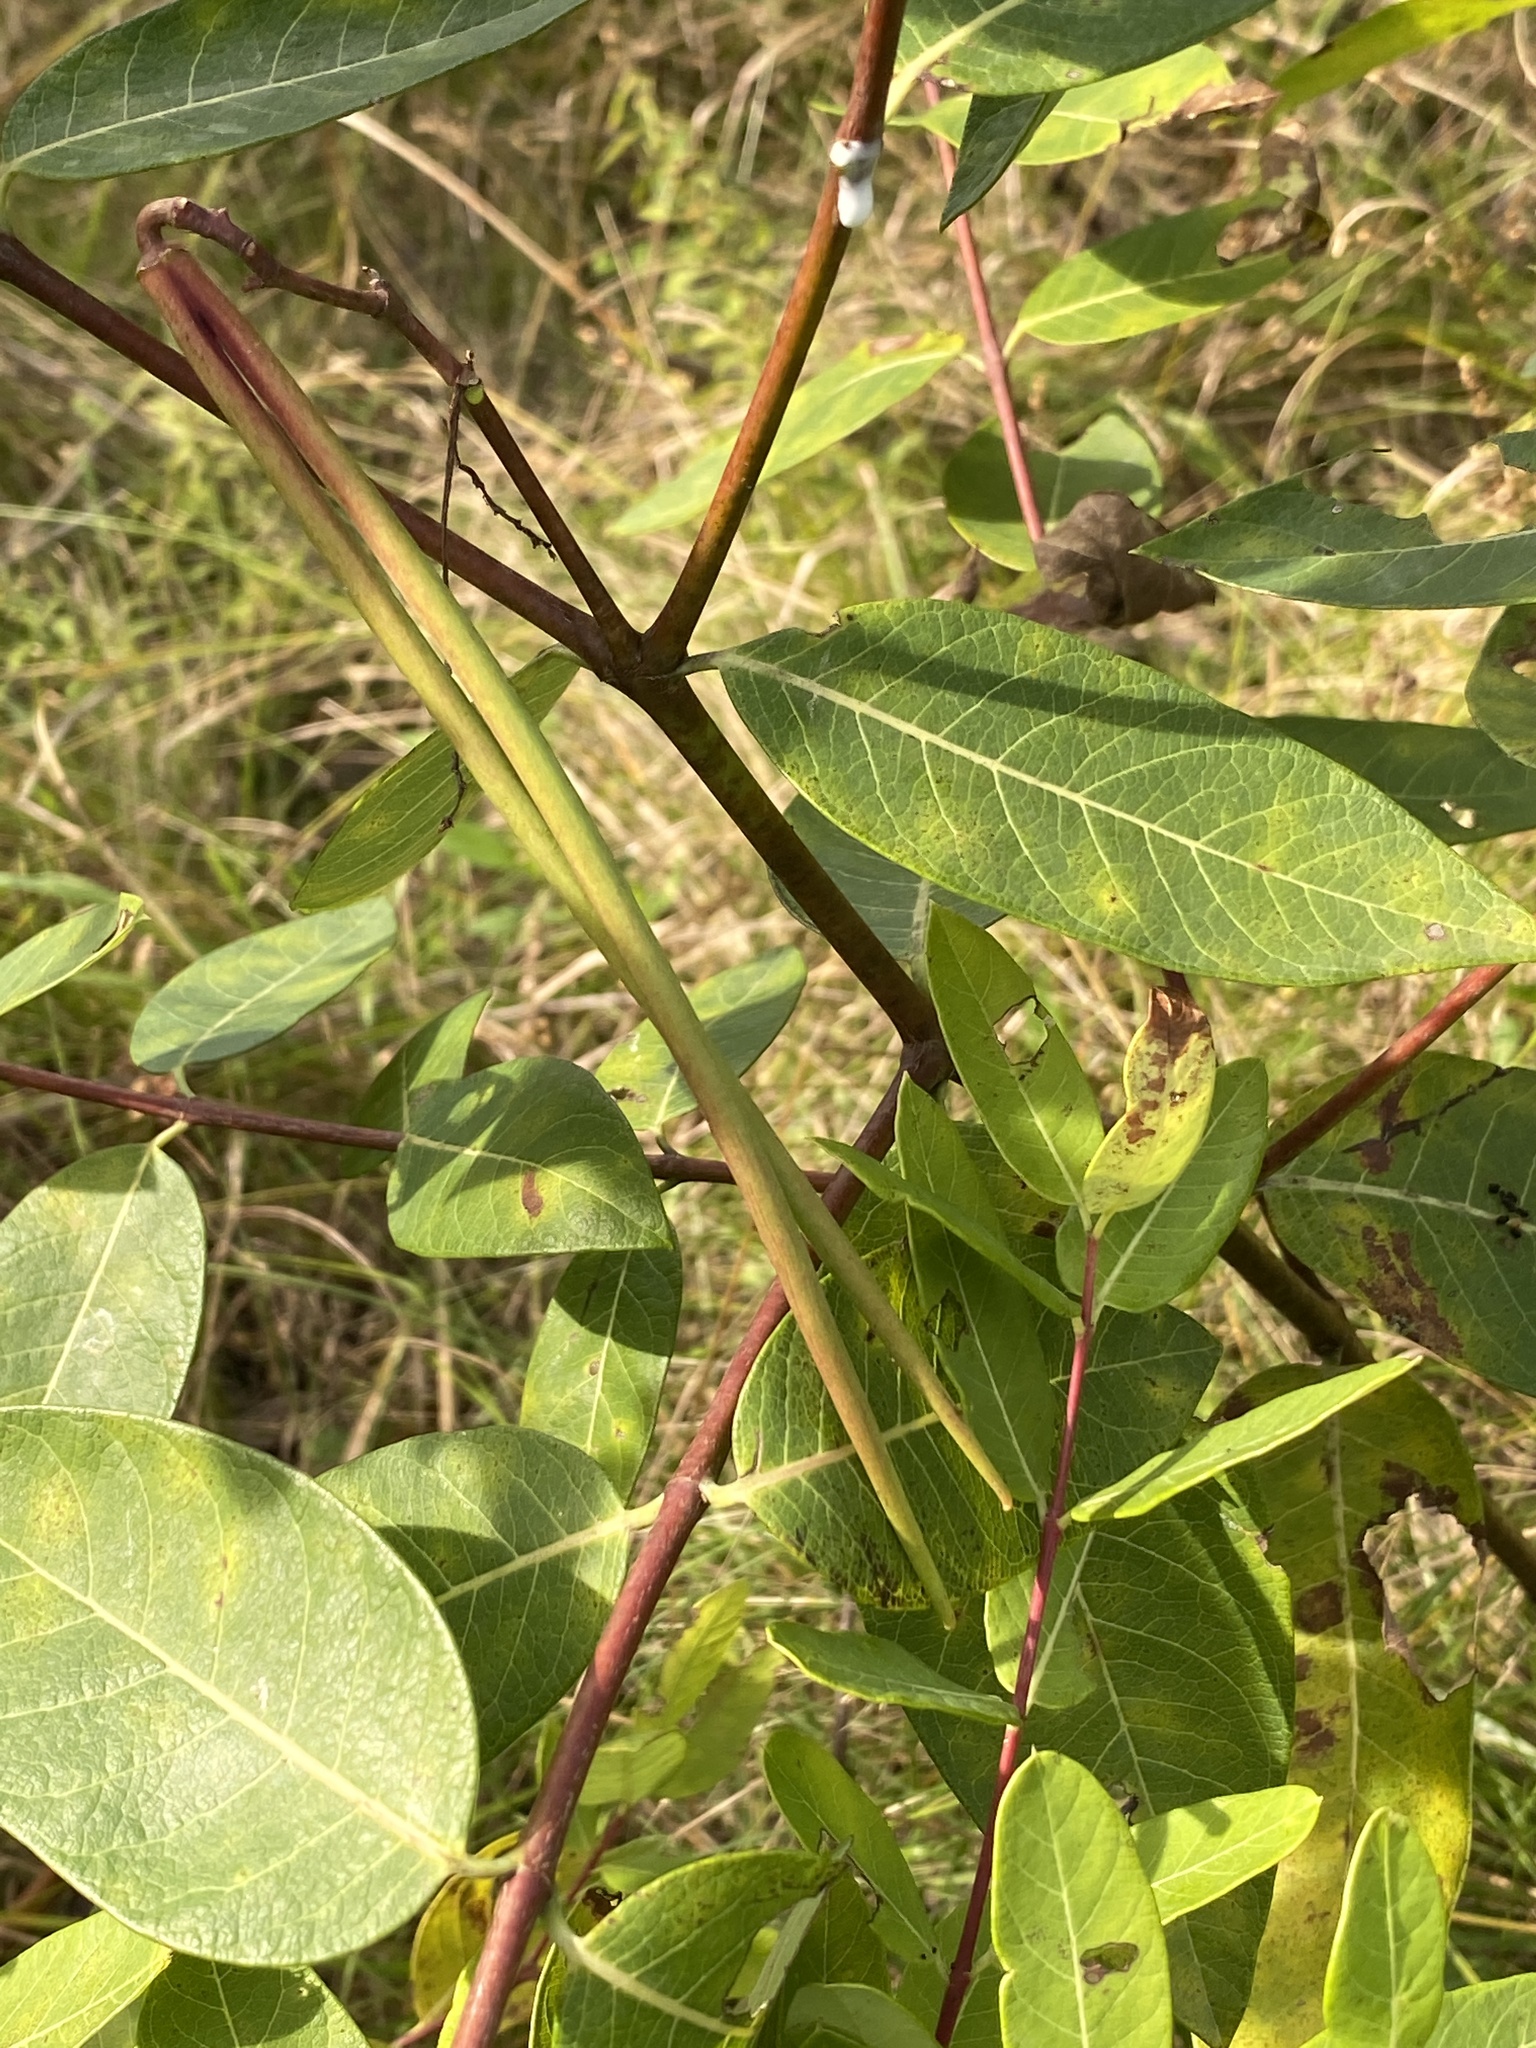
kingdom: Plantae
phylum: Tracheophyta
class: Magnoliopsida
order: Gentianales
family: Apocynaceae
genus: Apocynum
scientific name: Apocynum cannabinum
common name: Hemp dogbane
